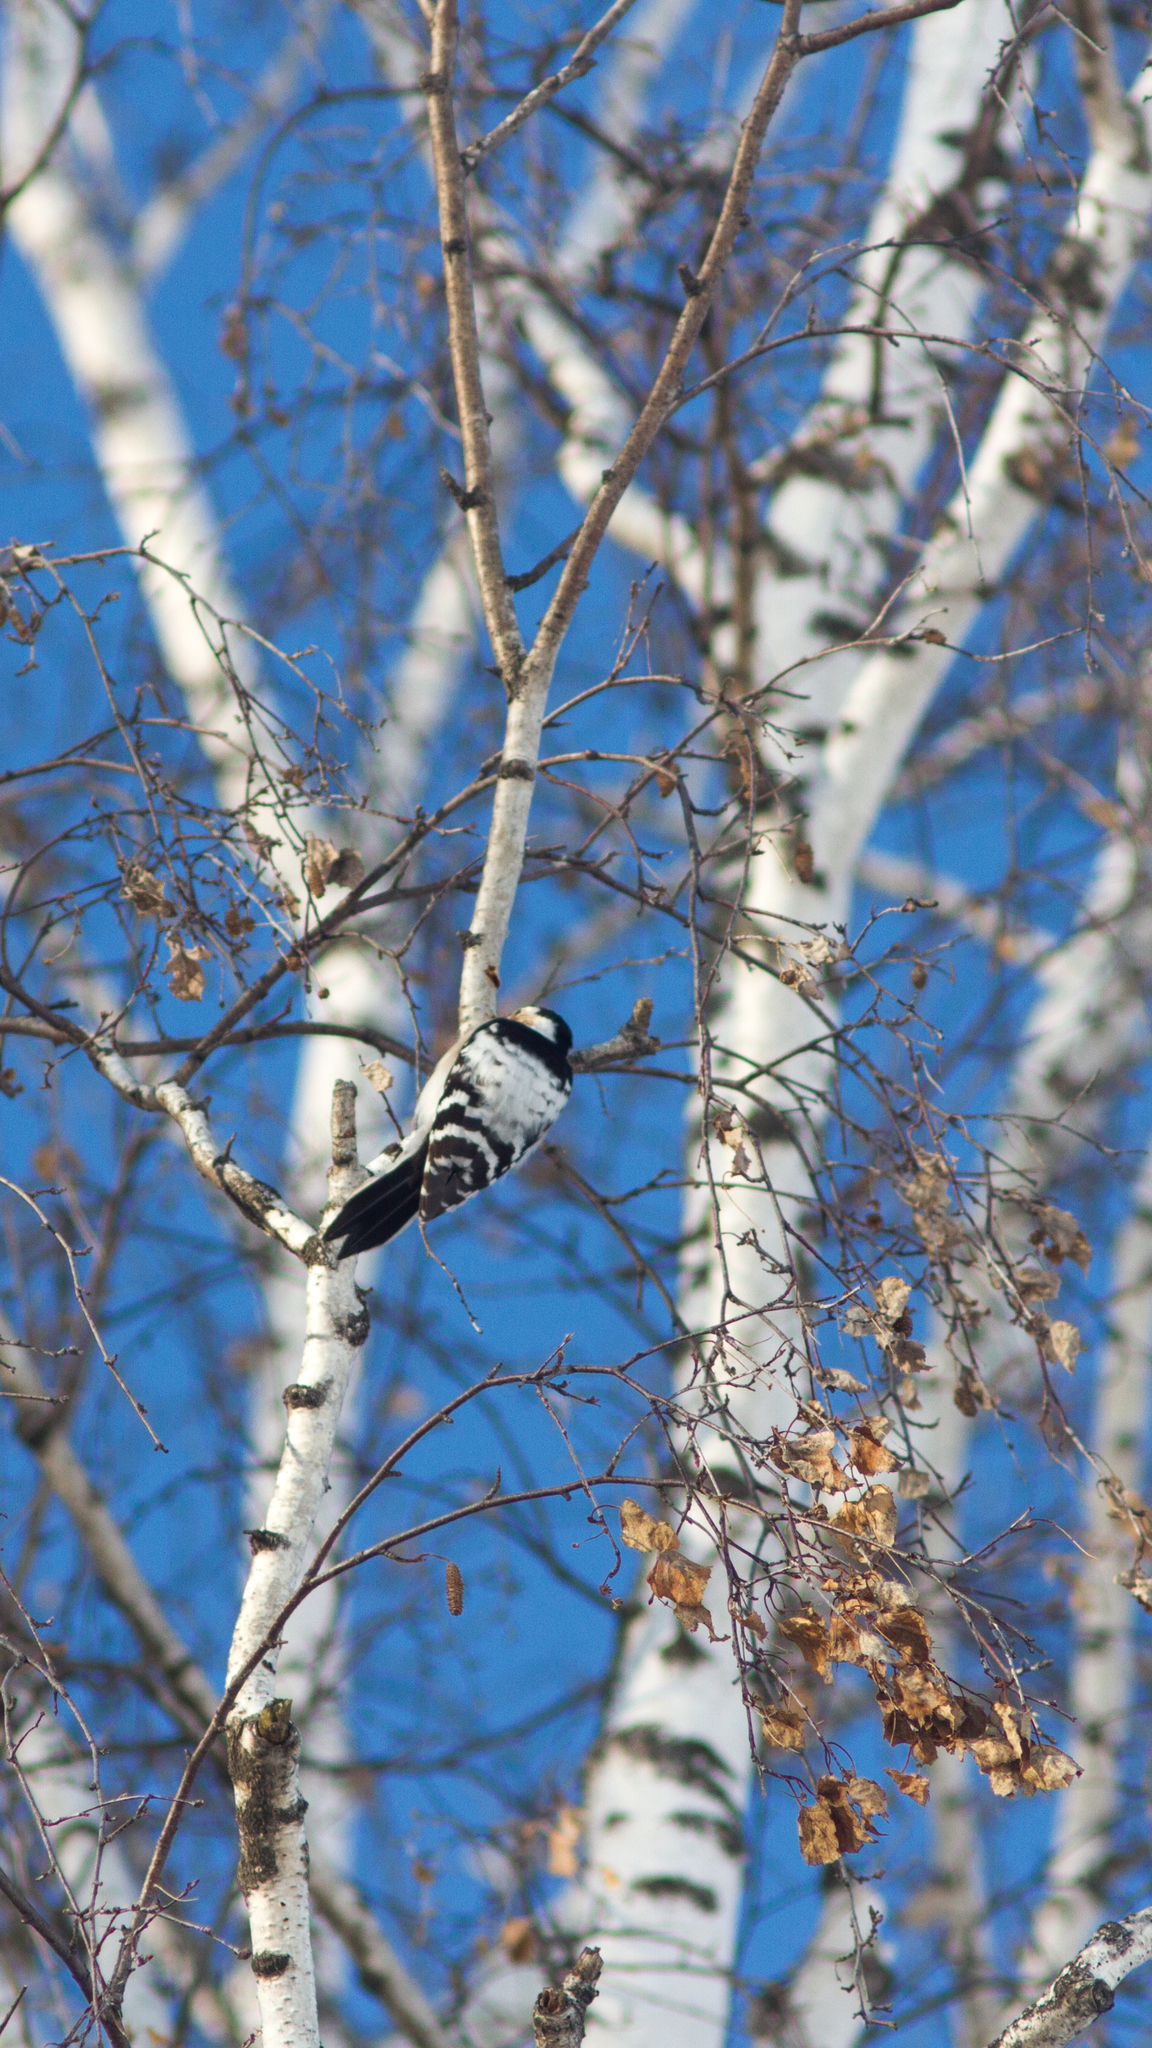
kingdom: Animalia
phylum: Chordata
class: Aves
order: Piciformes
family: Picidae
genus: Dryobates
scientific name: Dryobates minor
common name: Lesser spotted woodpecker
